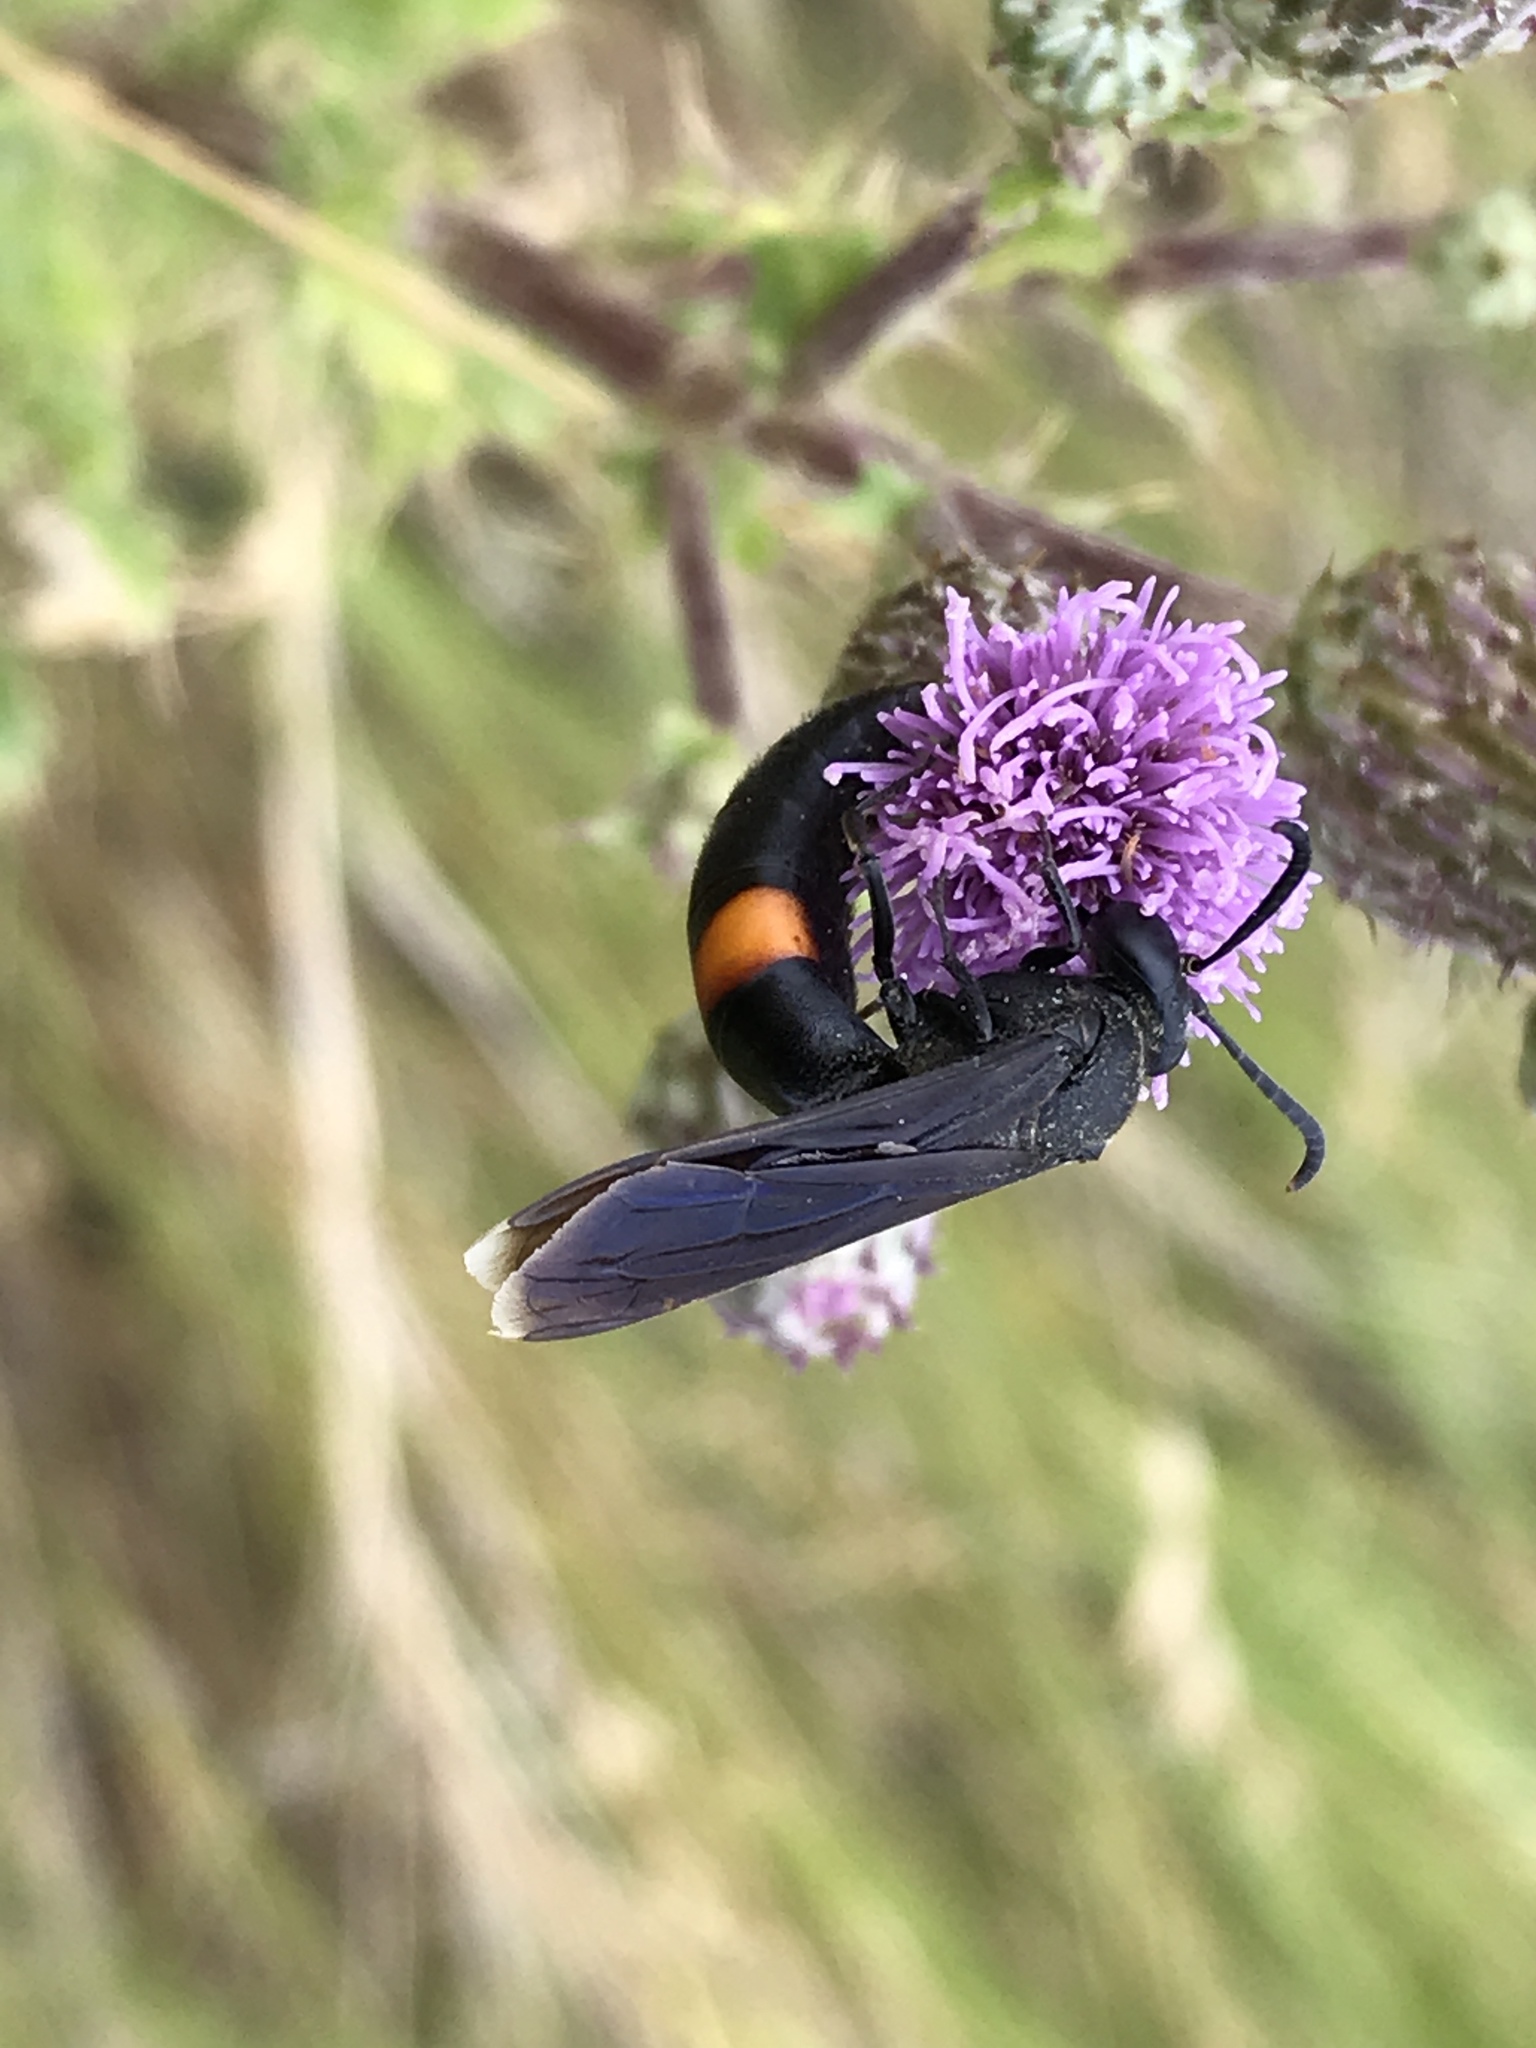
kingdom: Animalia
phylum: Arthropoda
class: Insecta
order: Hymenoptera
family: Crabronidae
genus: Stizoides
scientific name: Stizoides renicinctus
